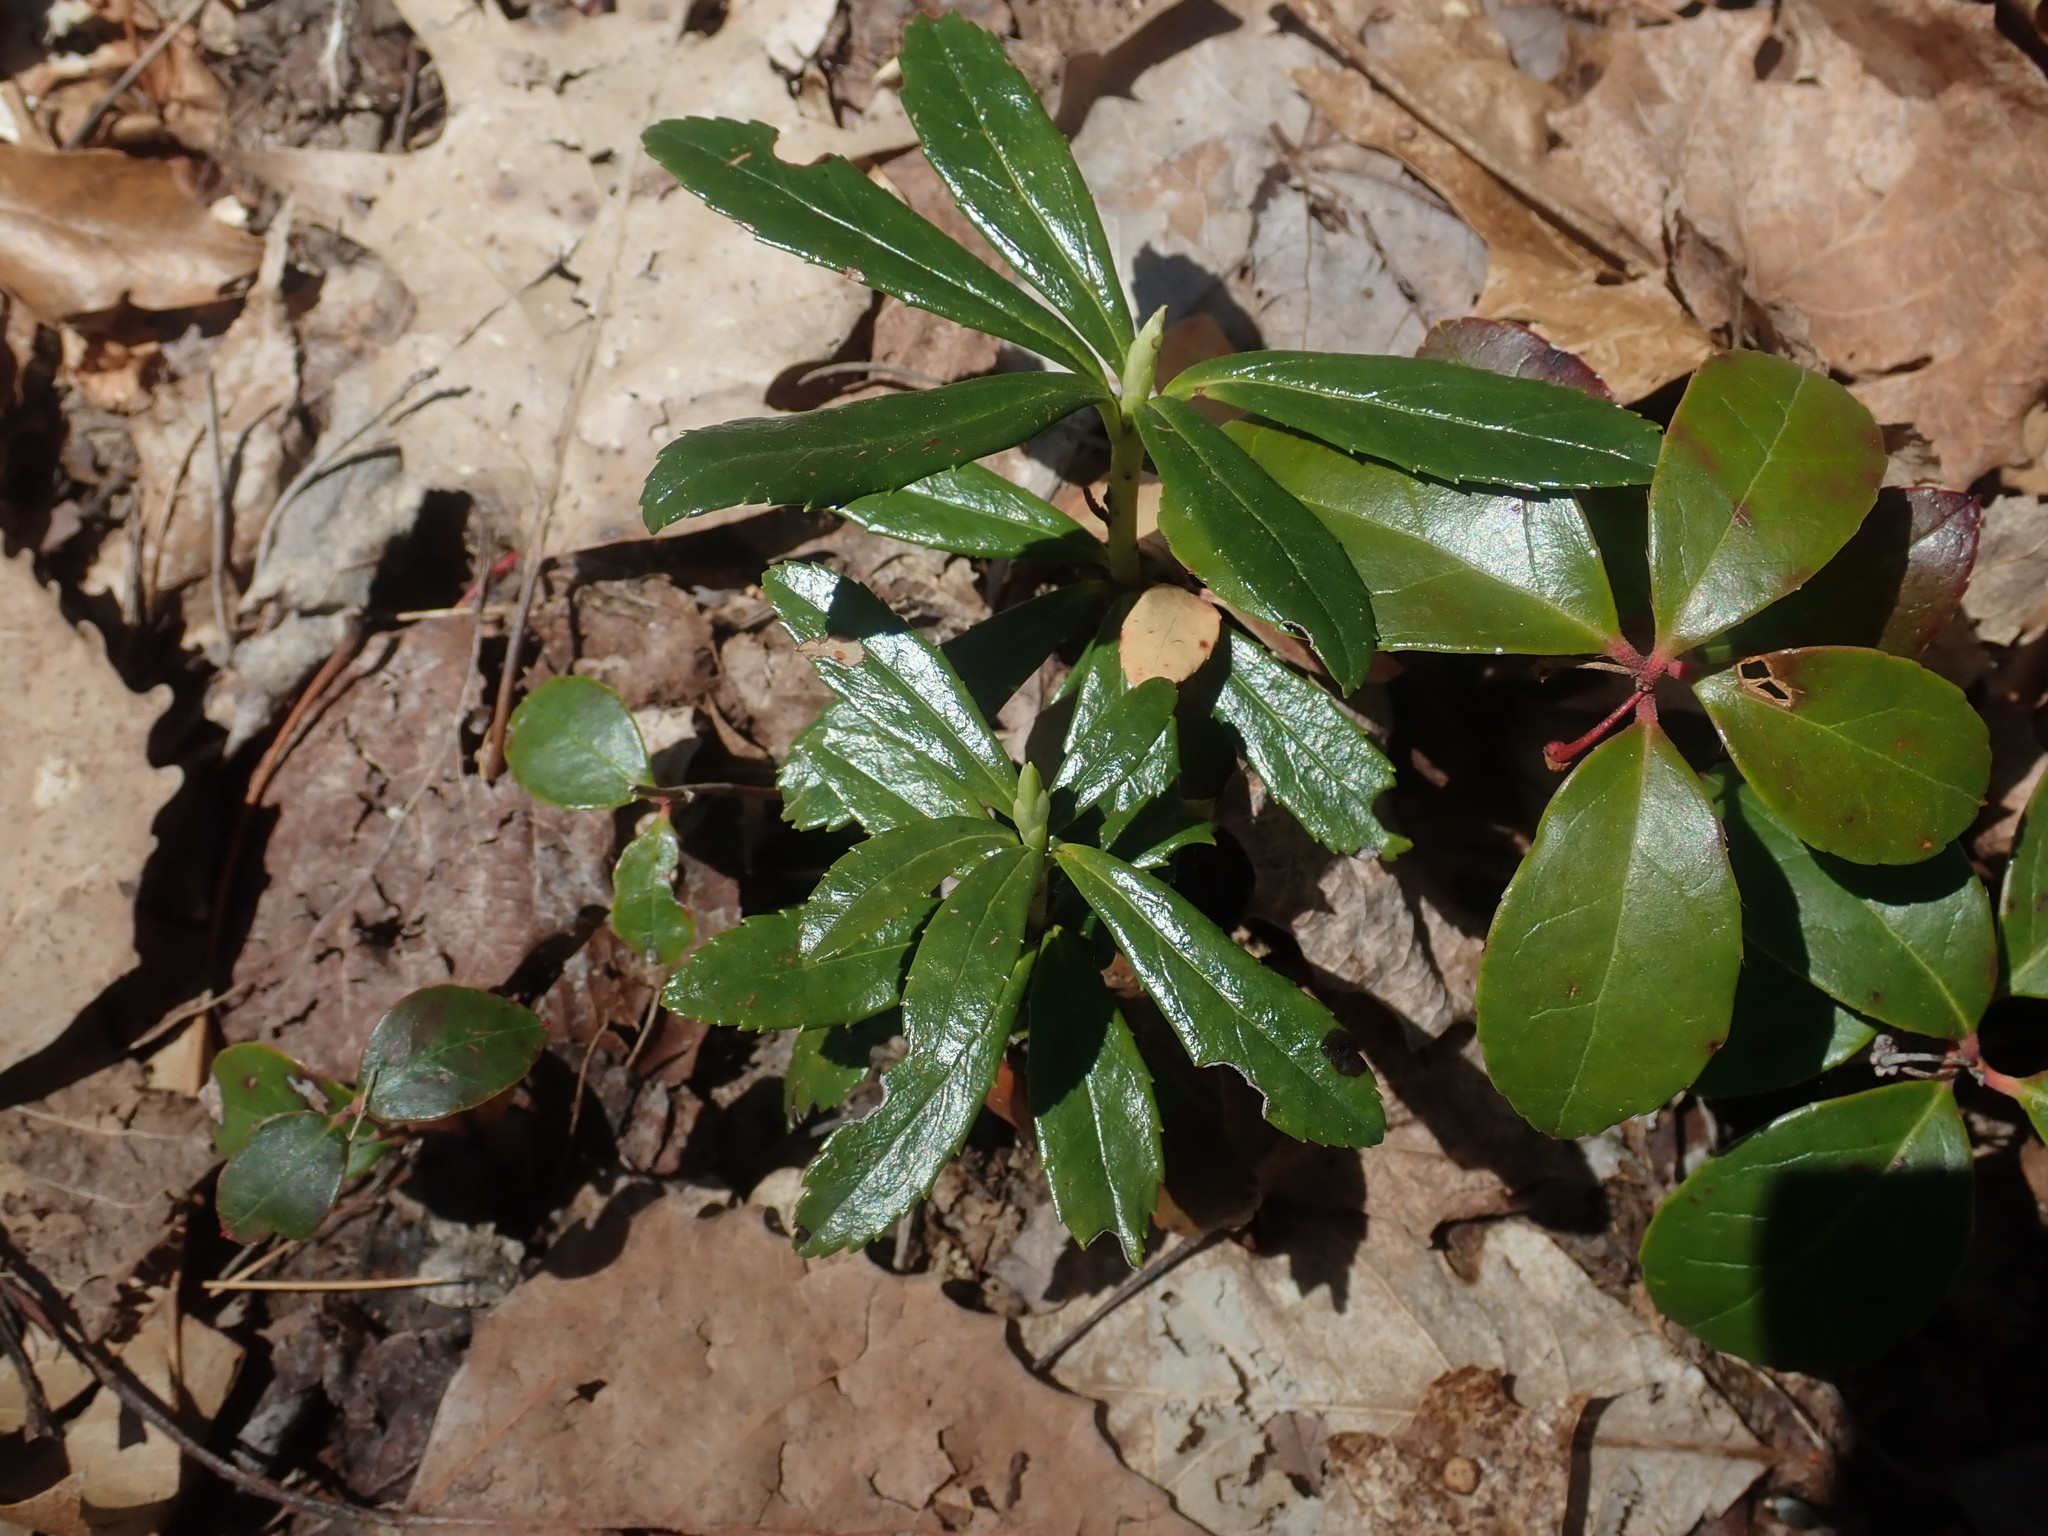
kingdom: Plantae
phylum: Tracheophyta
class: Magnoliopsida
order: Ericales
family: Ericaceae
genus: Chimaphila
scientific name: Chimaphila umbellata
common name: Pipsissewa
